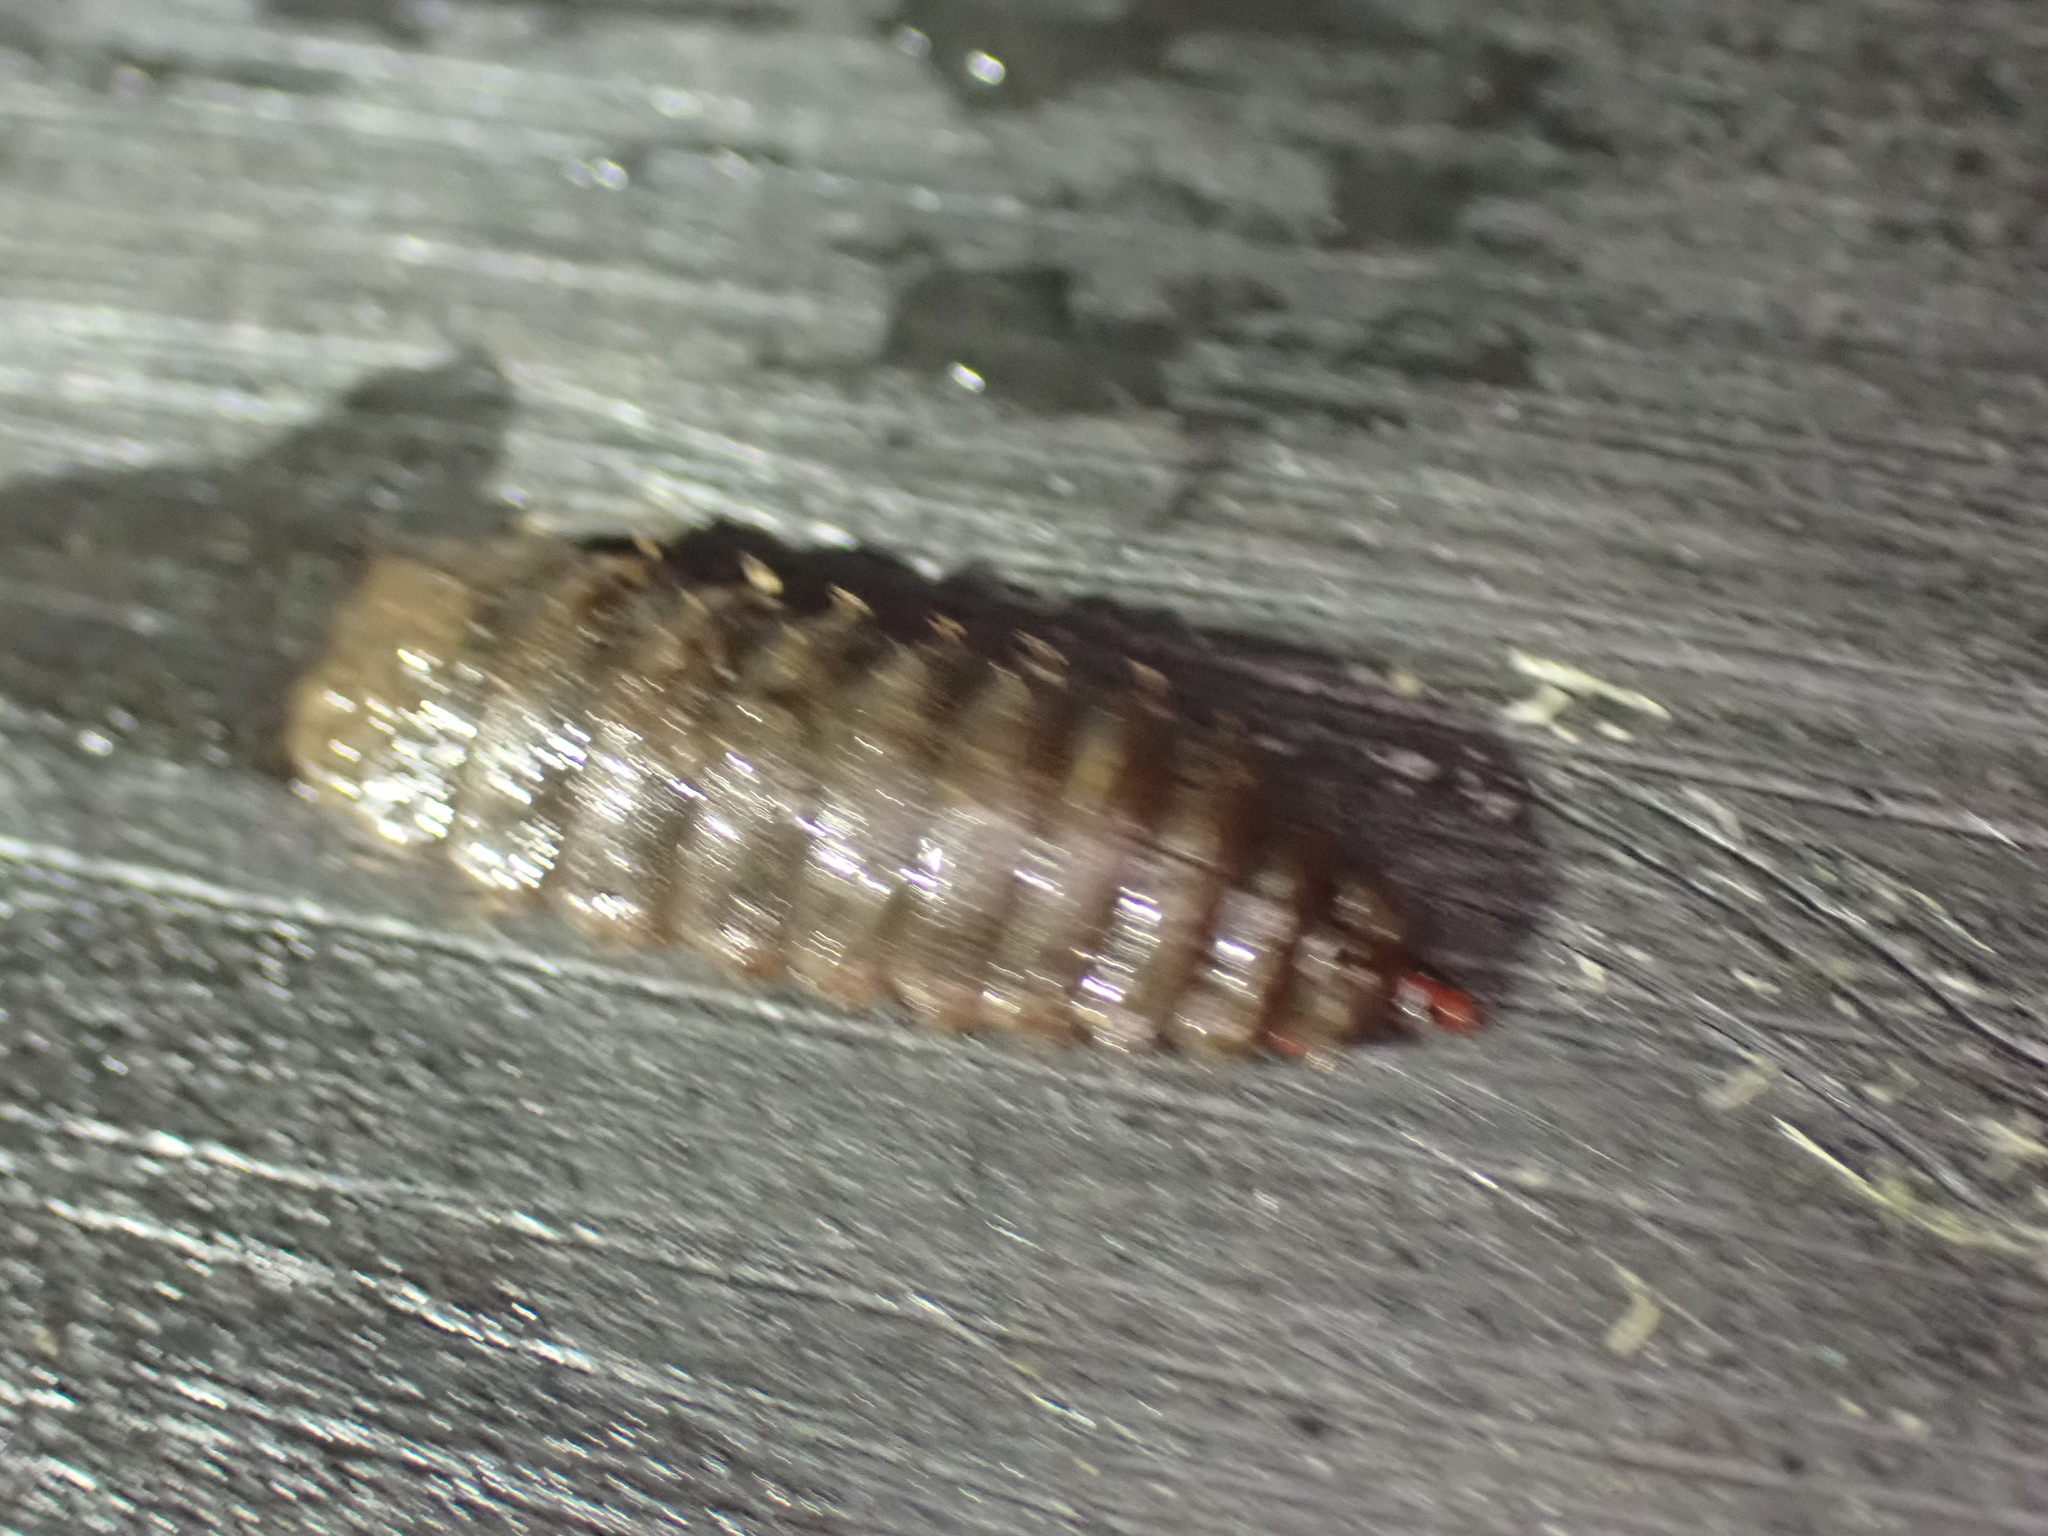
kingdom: Animalia
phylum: Arthropoda
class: Insecta
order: Diptera
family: Stratiomyidae
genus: Hermetia
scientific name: Hermetia illucens
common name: Black soldier fly
